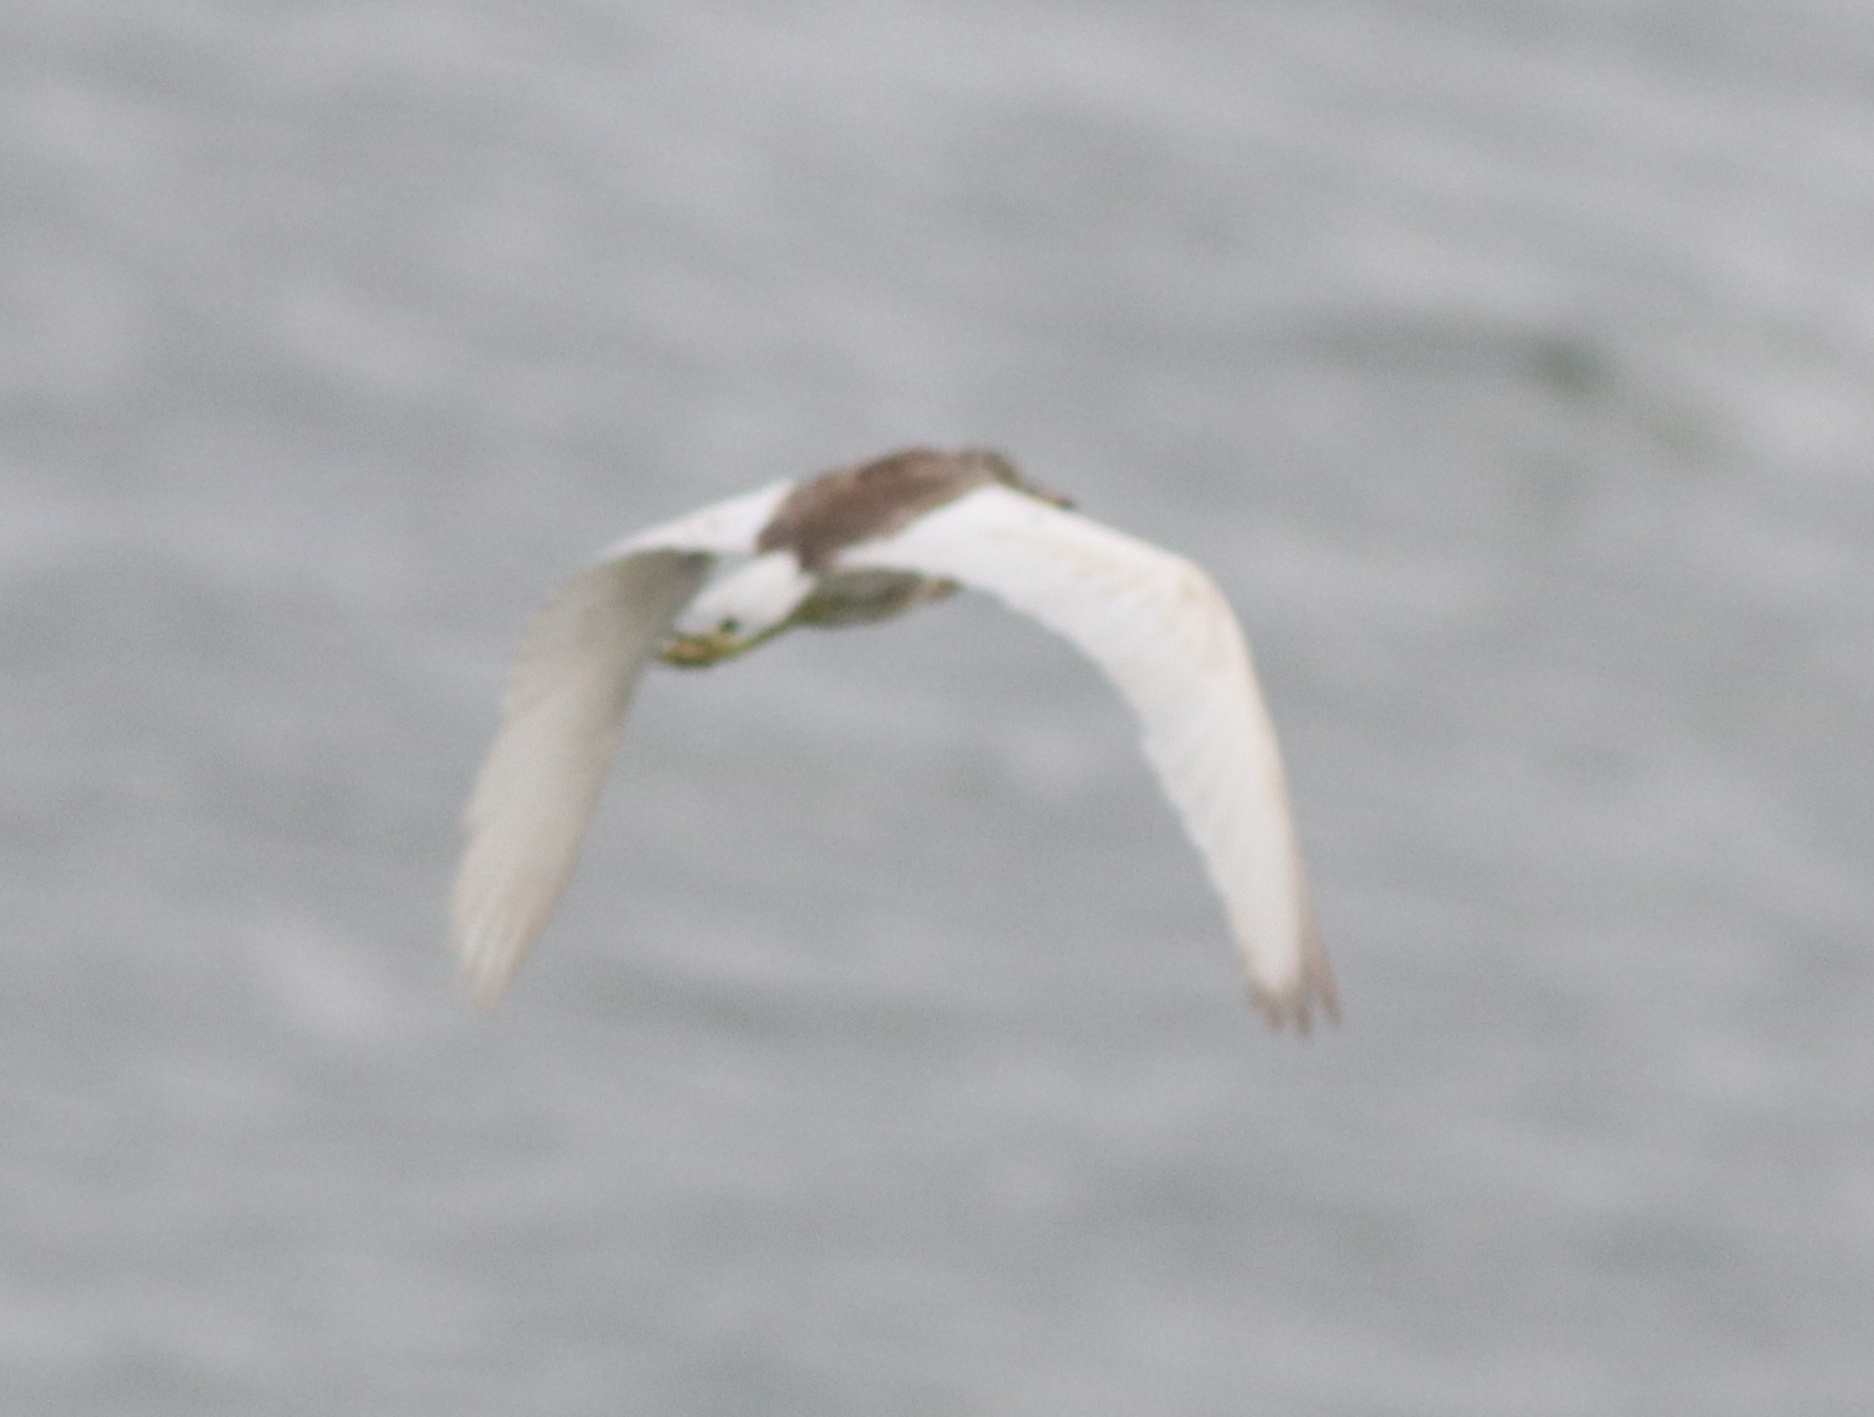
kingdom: Animalia
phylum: Chordata
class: Aves
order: Pelecaniformes
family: Ardeidae
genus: Ardeola
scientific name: Ardeola grayii
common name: Indian pond heron
